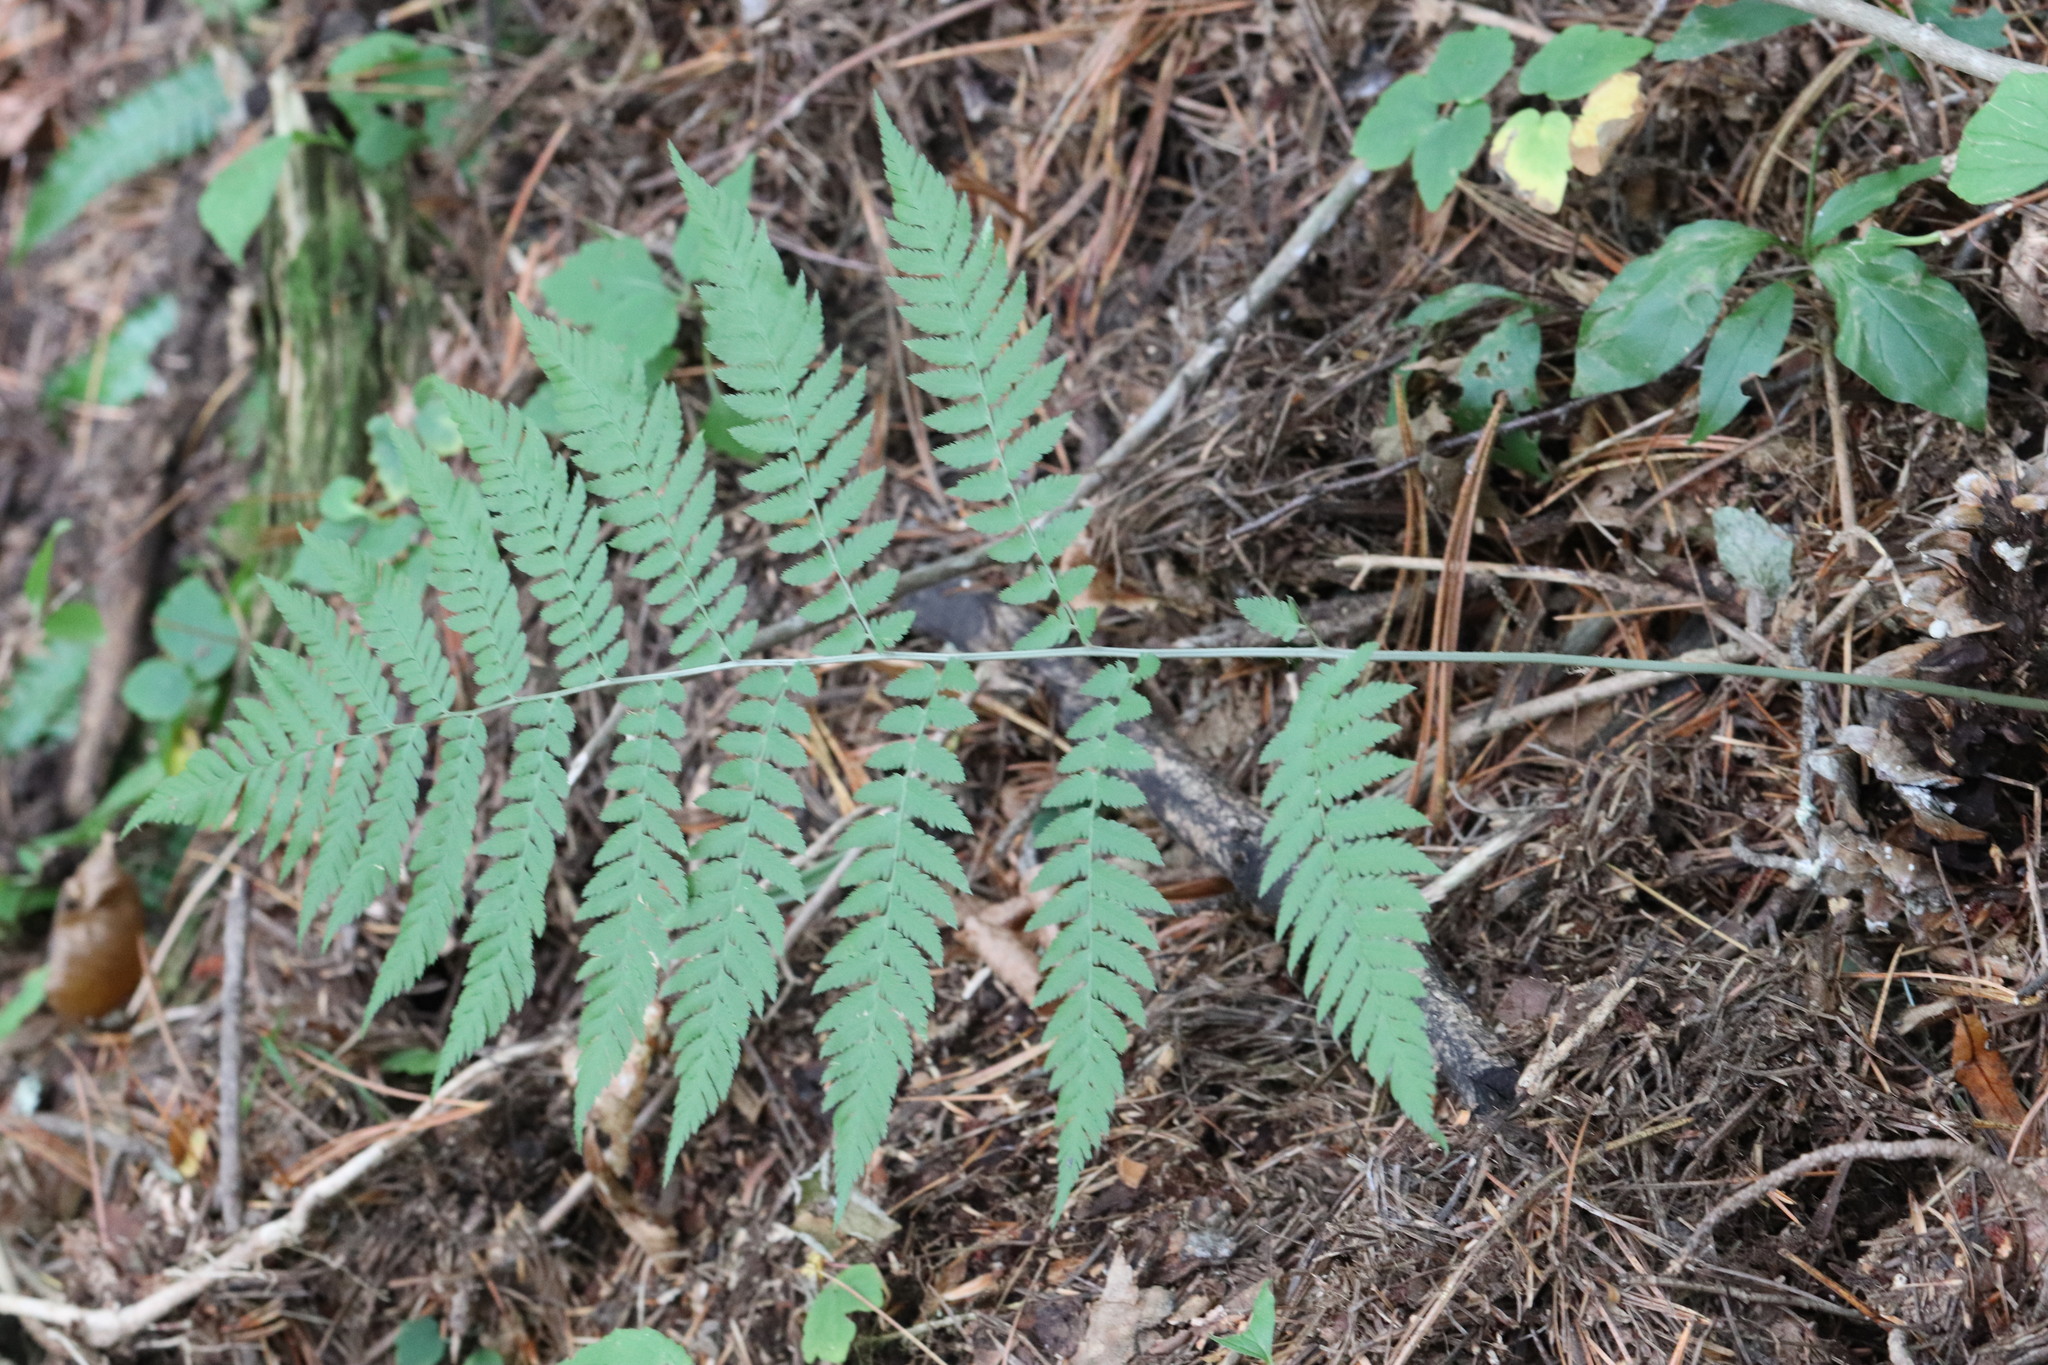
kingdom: Plantae
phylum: Tracheophyta
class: Polypodiopsida
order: Polypodiales
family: Dryopteridaceae
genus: Dryopteris
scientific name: Dryopteris goeringiana
